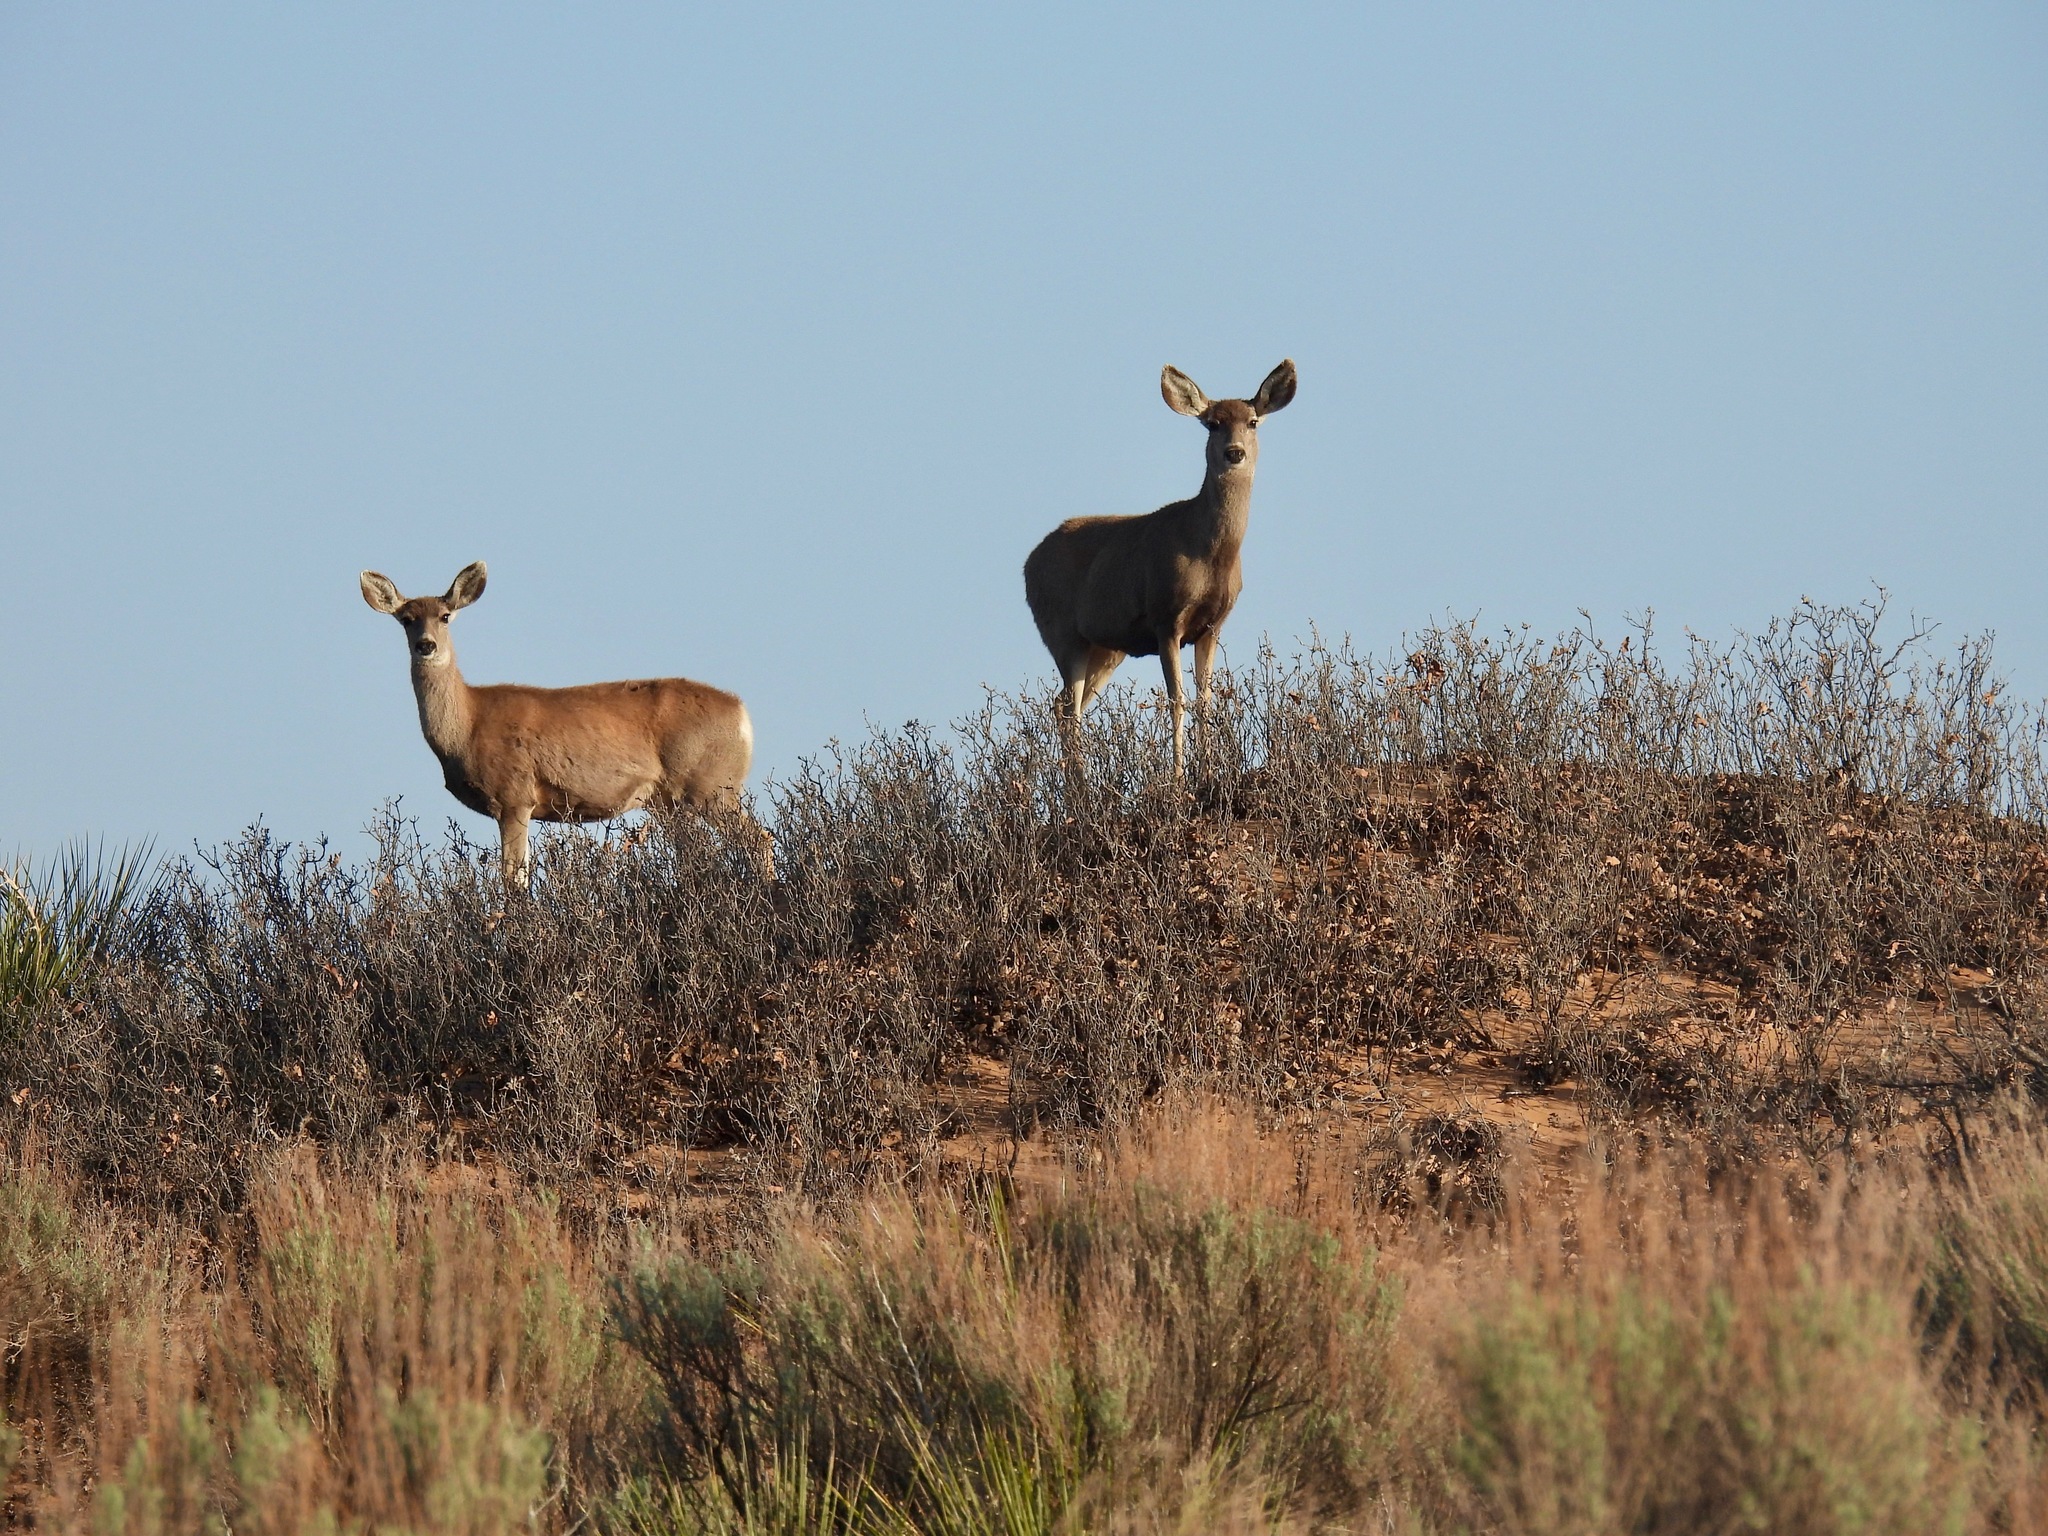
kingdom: Animalia
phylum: Chordata
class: Mammalia
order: Artiodactyla
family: Cervidae
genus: Odocoileus
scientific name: Odocoileus hemionus
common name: Mule deer
